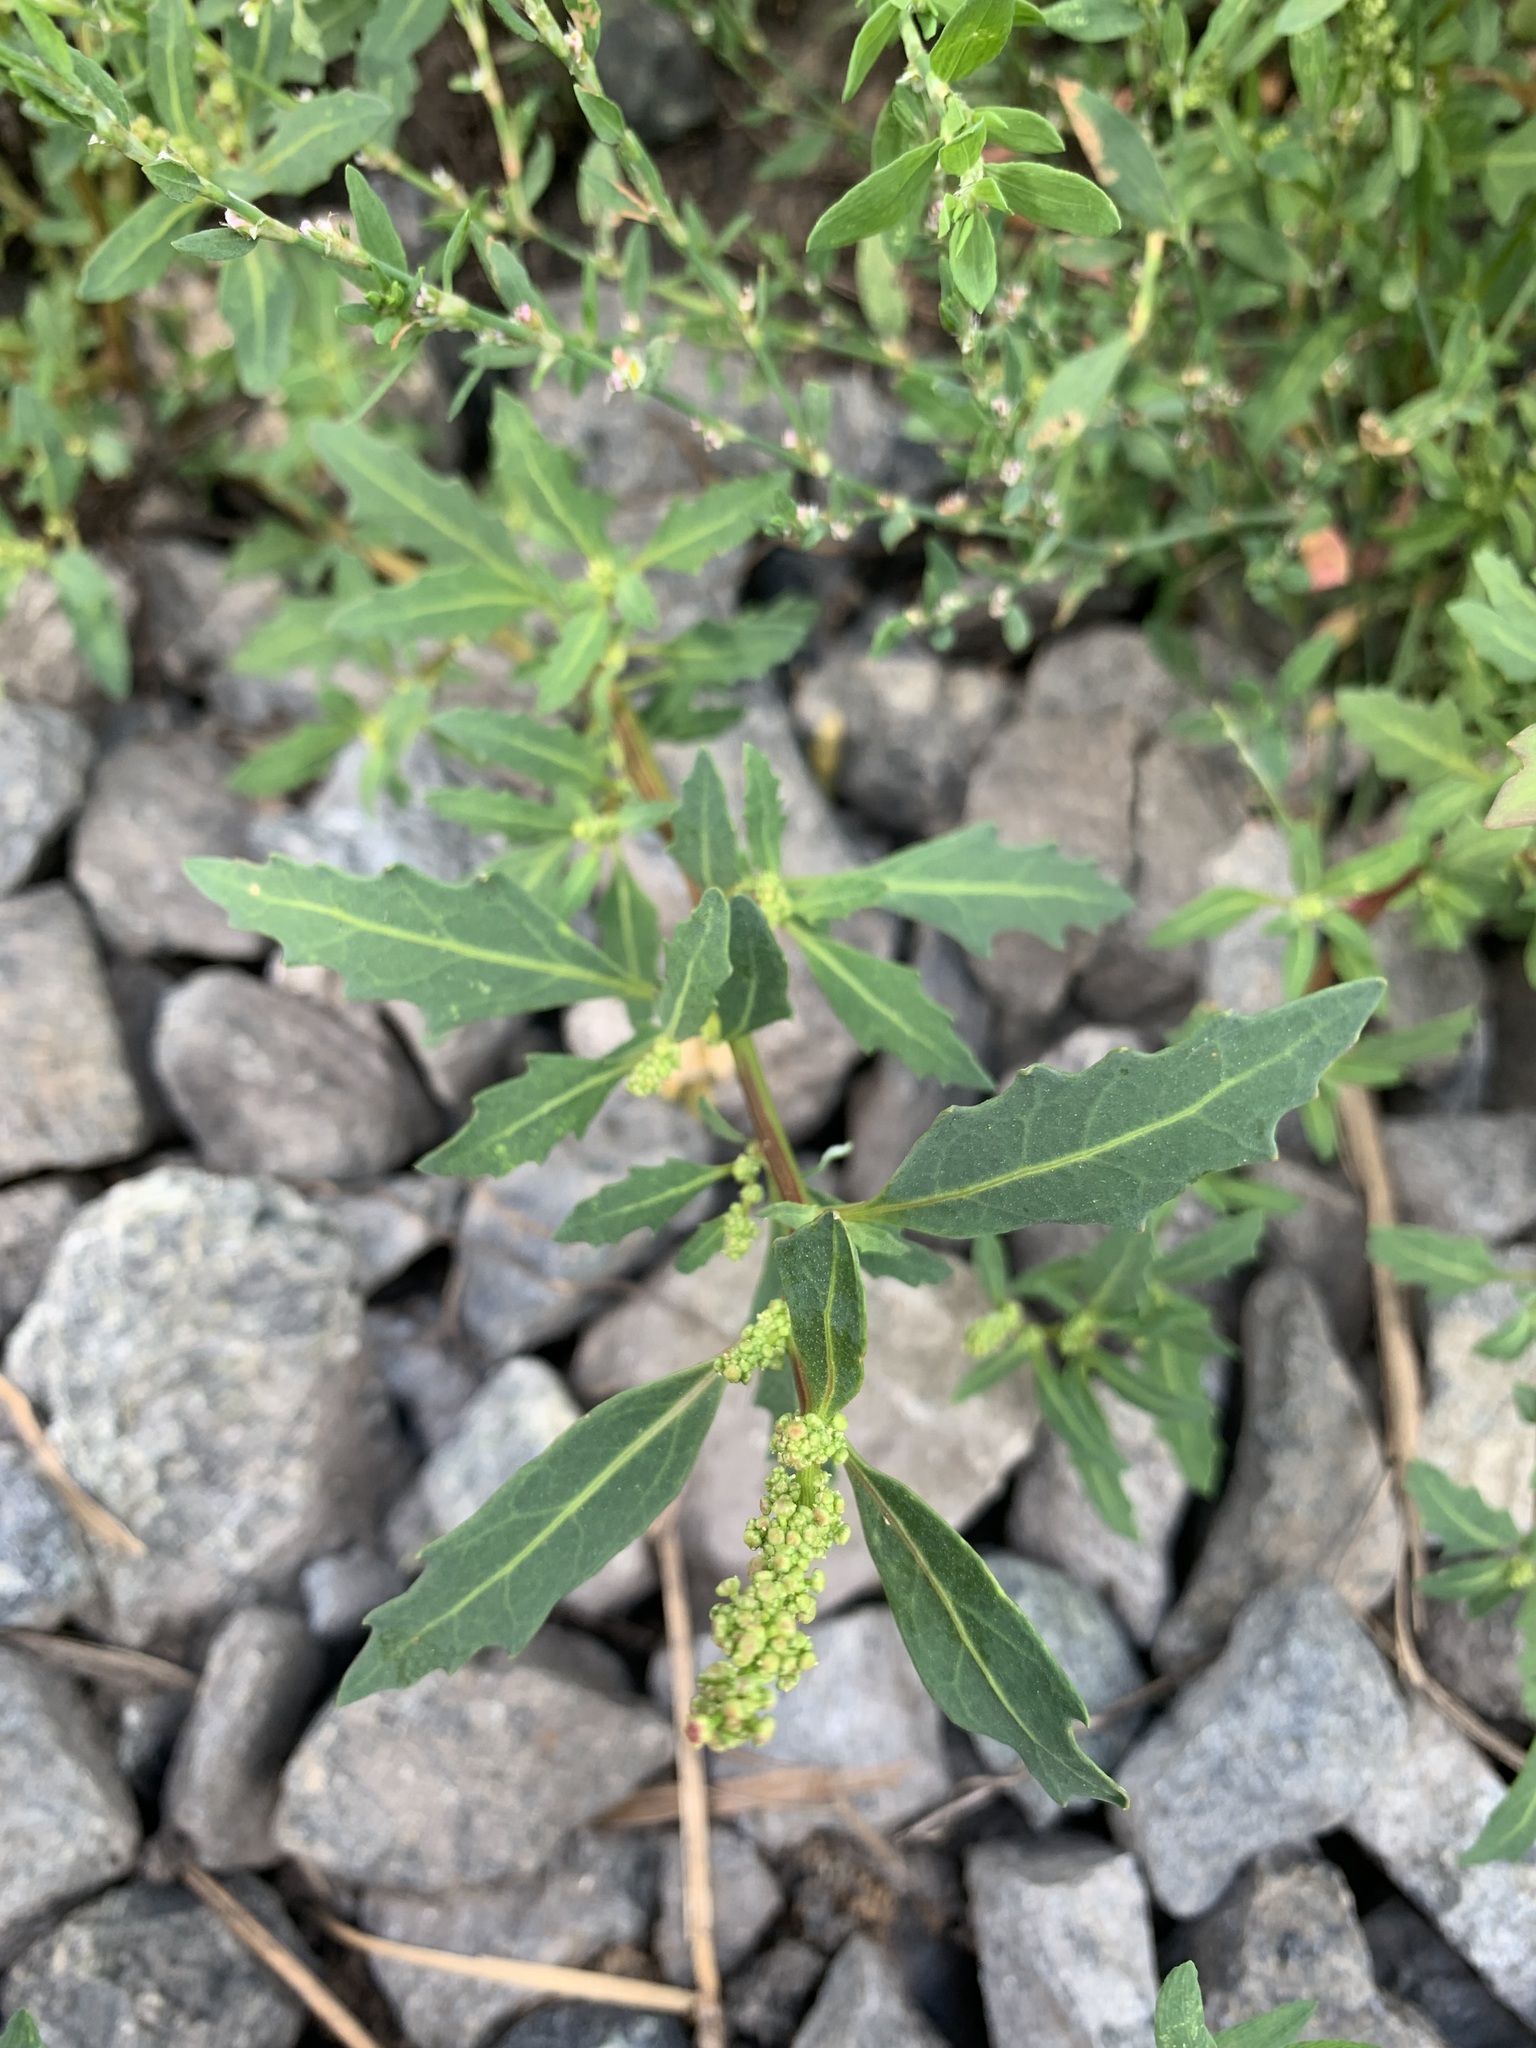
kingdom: Plantae
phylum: Tracheophyta
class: Magnoliopsida
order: Caryophyllales
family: Amaranthaceae
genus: Oxybasis
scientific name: Oxybasis glauca
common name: Glaucous goosefoot
